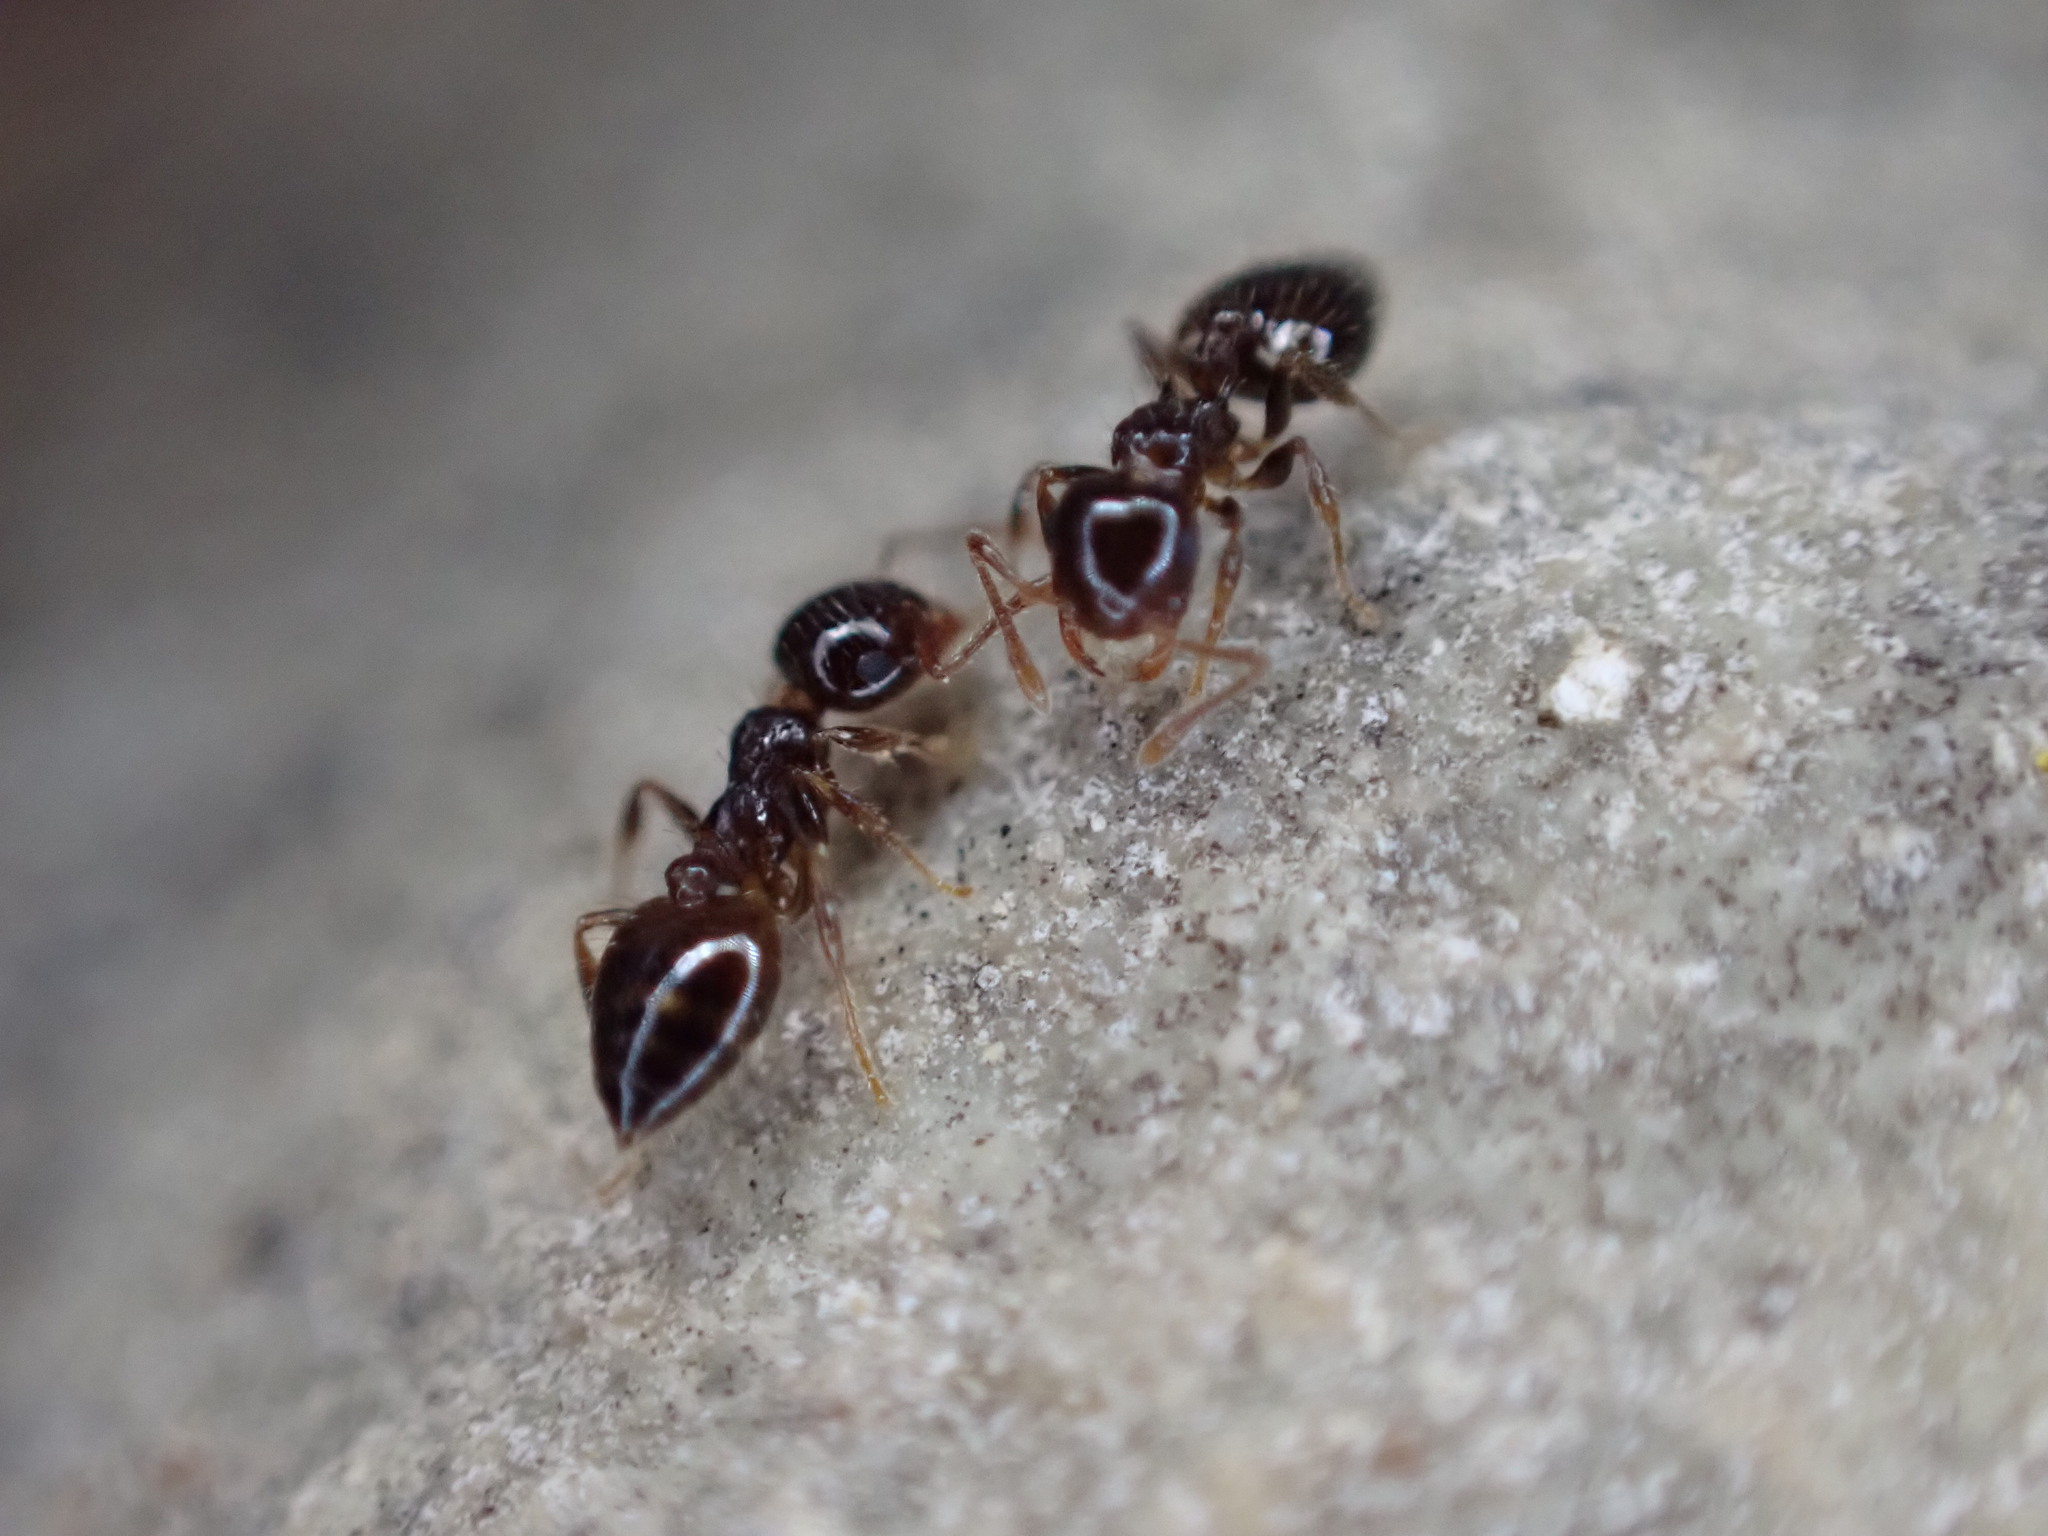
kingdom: Animalia
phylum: Arthropoda
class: Insecta
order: Hymenoptera
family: Formicidae
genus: Crematogaster
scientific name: Crematogaster sordidula
